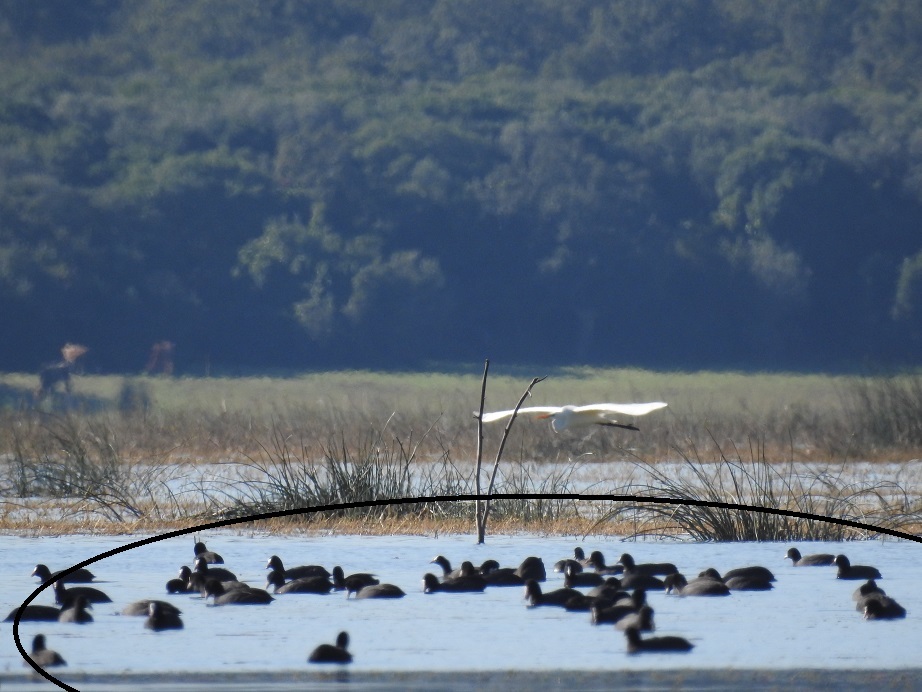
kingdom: Animalia
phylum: Chordata
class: Aves
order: Gruiformes
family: Rallidae
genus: Fulica
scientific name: Fulica atra
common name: Eurasian coot
